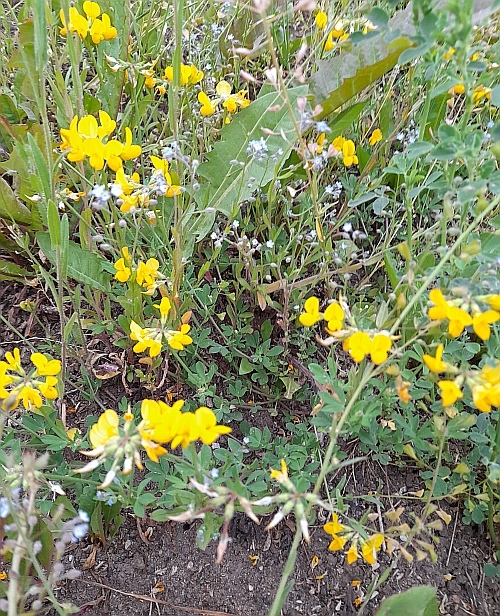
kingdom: Plantae
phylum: Tracheophyta
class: Magnoliopsida
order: Fabales
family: Fabaceae
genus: Lotus
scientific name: Lotus corniculatus
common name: Common bird's-foot-trefoil
